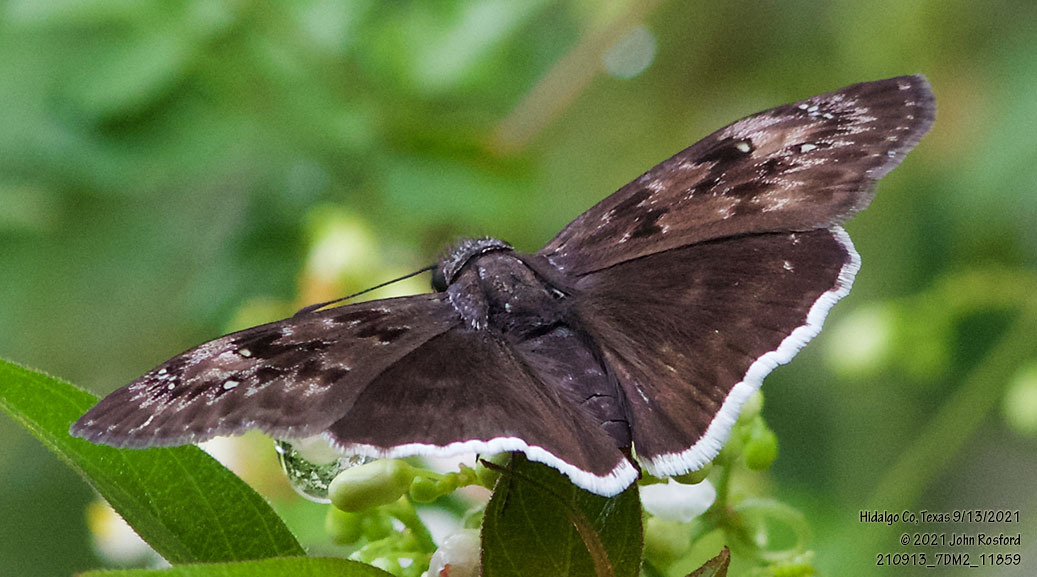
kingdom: Animalia
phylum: Arthropoda
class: Insecta
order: Lepidoptera
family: Hesperiidae
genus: Erynnis
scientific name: Erynnis tristis
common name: Mournful duskywing
